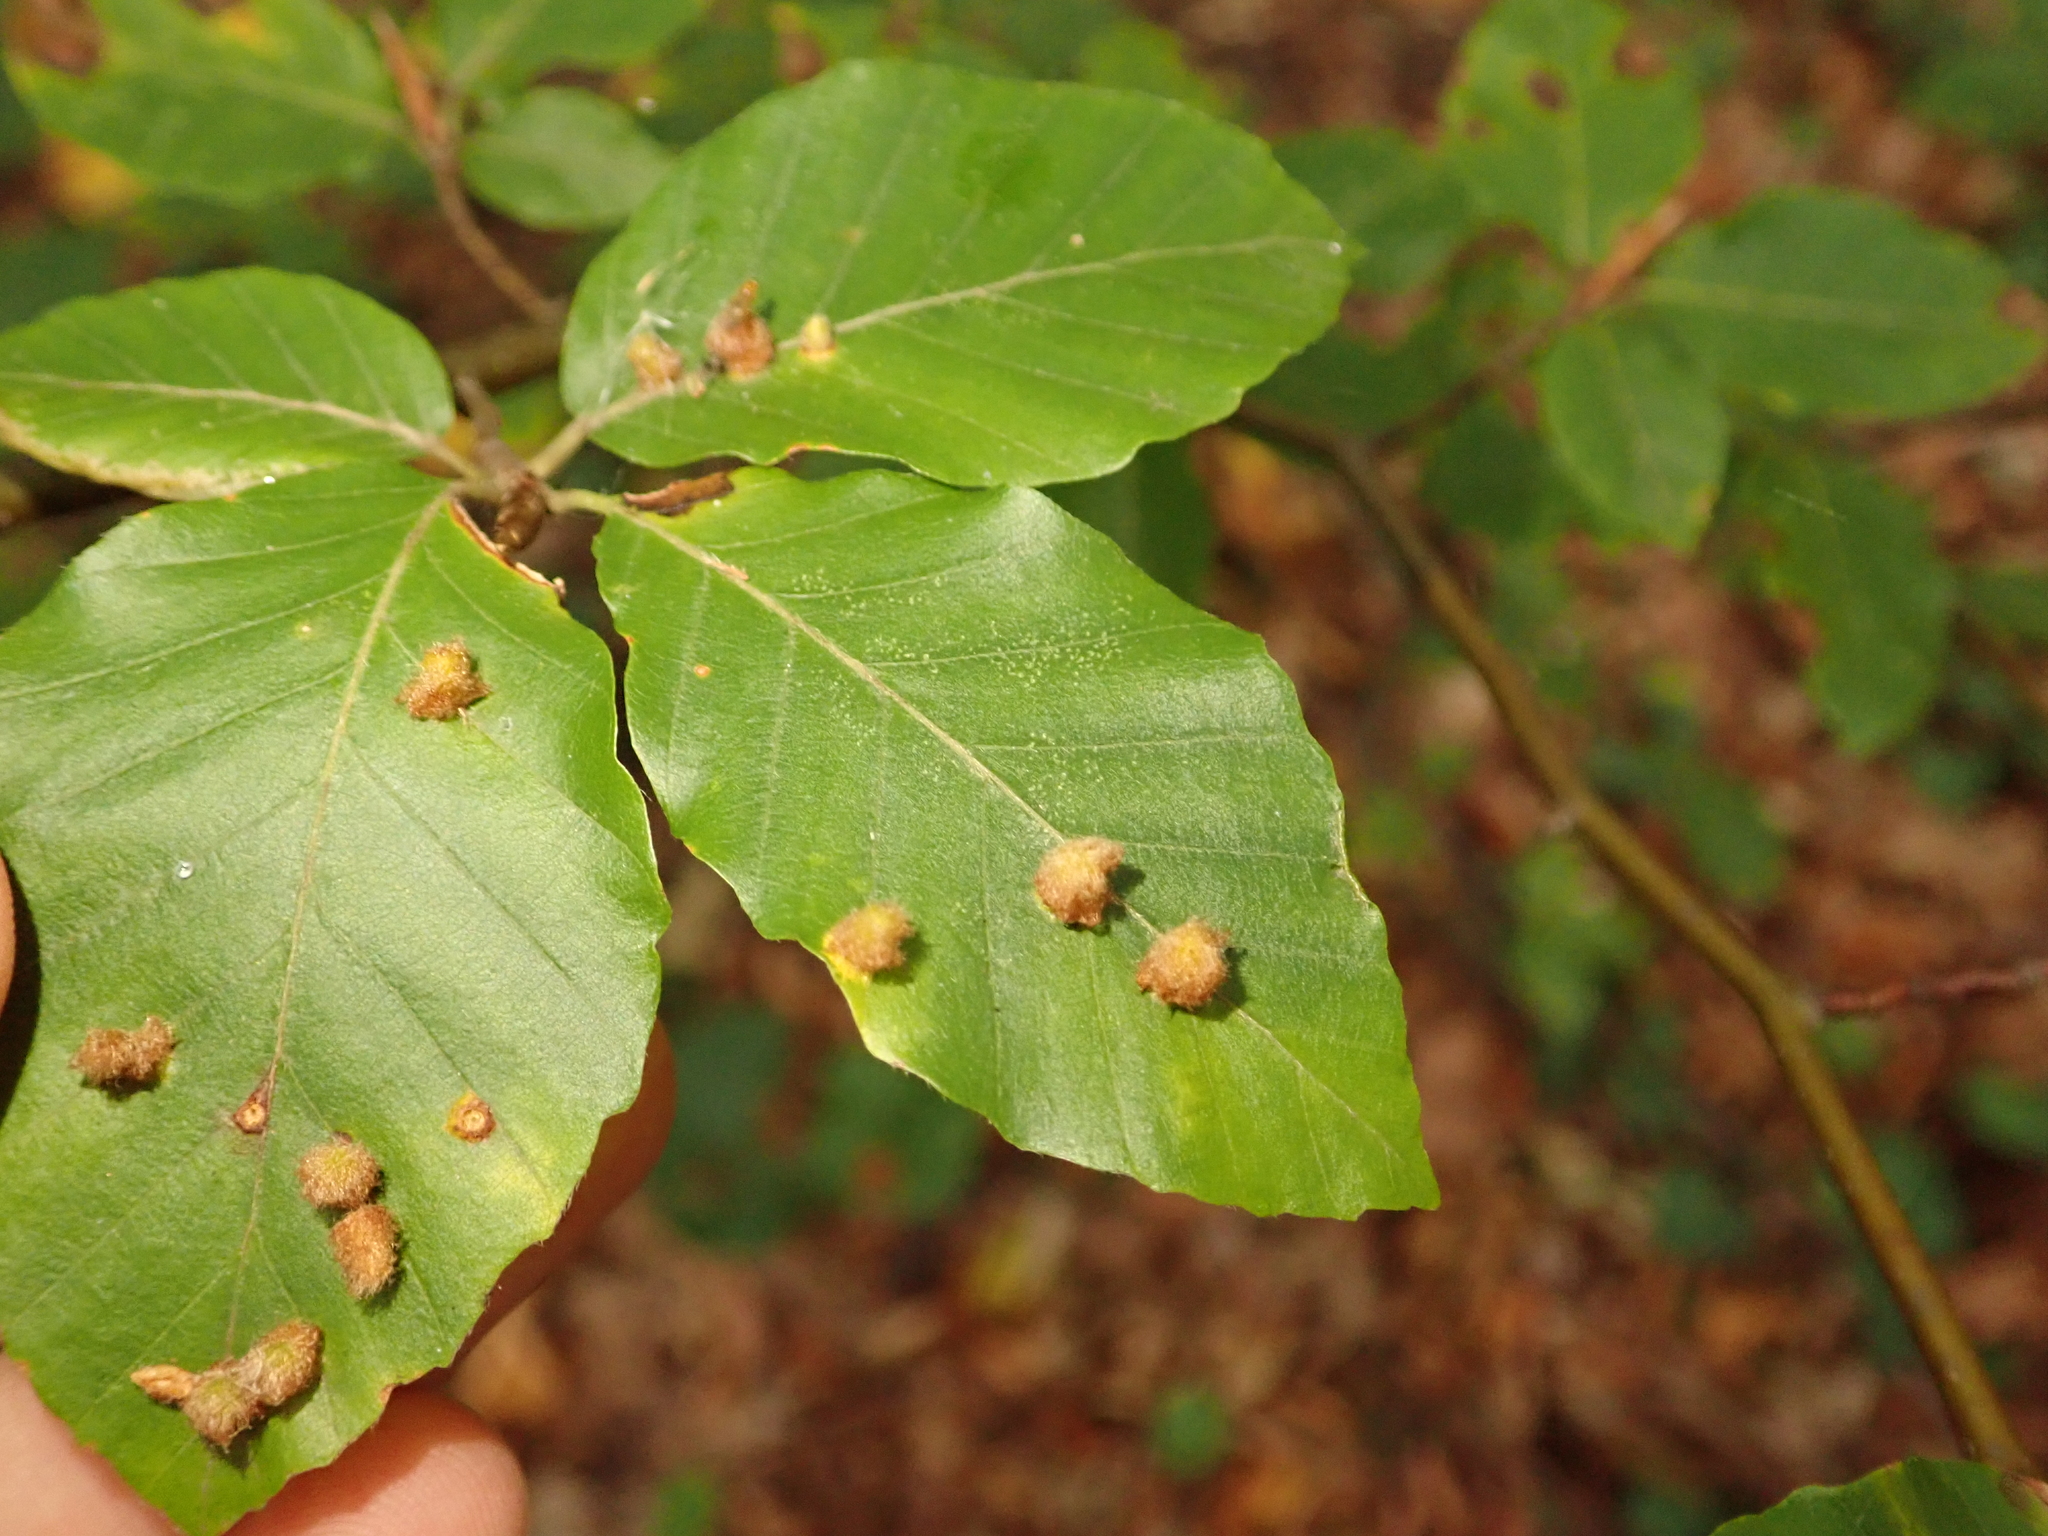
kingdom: Plantae
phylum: Tracheophyta
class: Magnoliopsida
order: Fagales
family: Fagaceae
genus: Fagus
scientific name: Fagus sylvatica
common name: Beech
